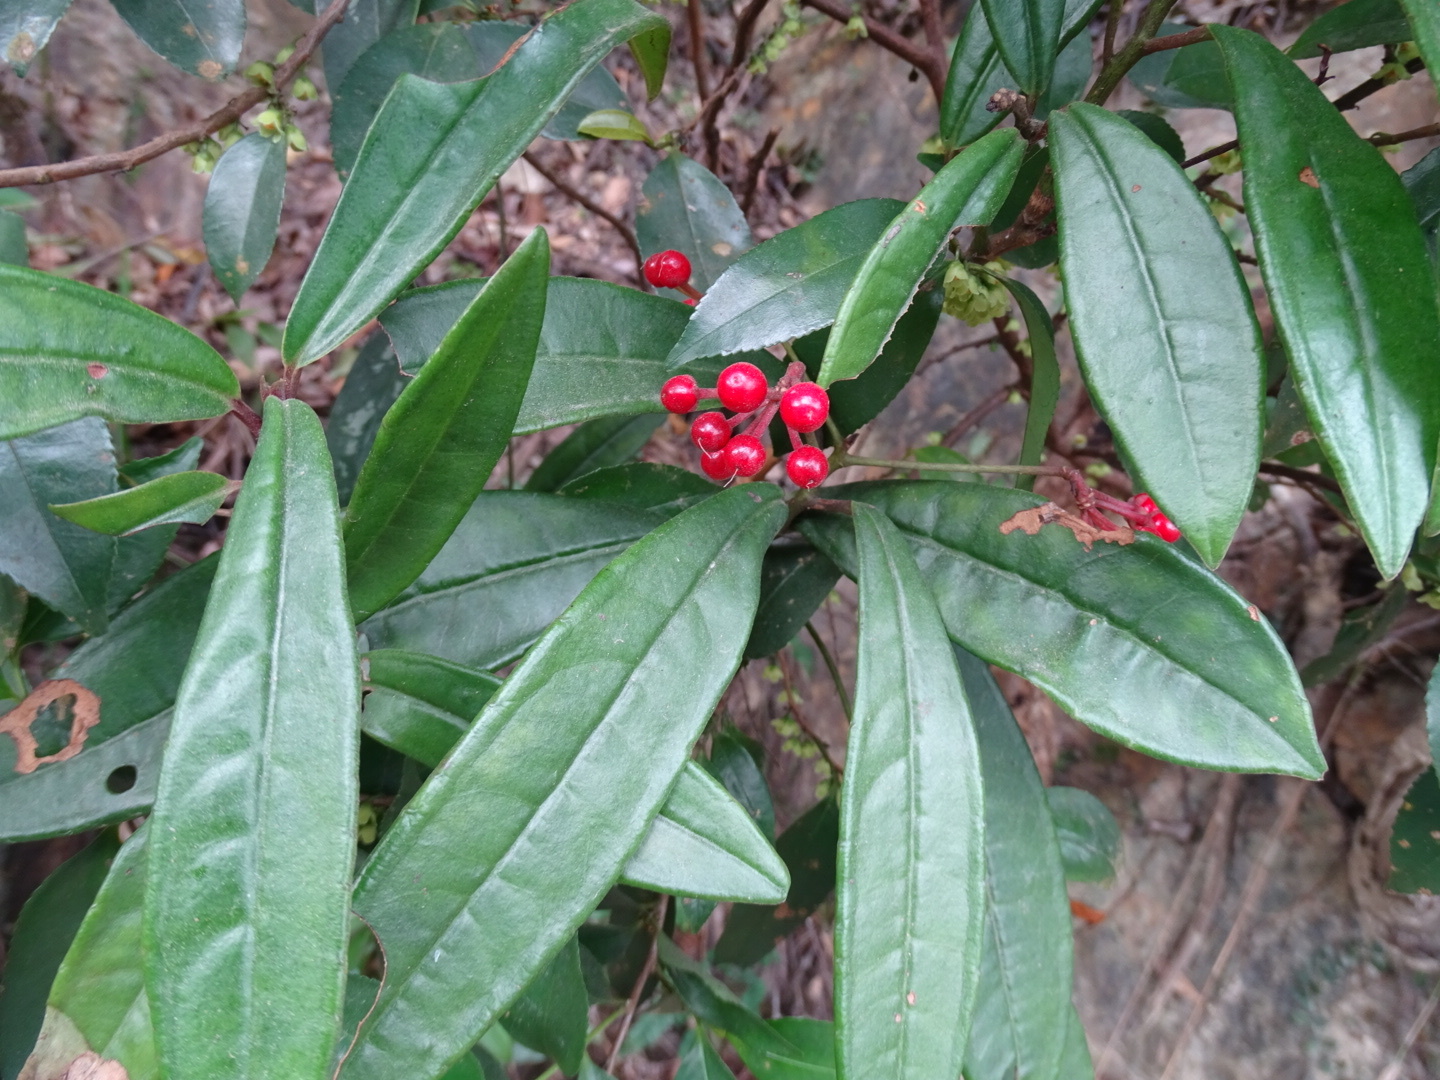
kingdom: Plantae
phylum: Tracheophyta
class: Magnoliopsida
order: Ericales
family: Primulaceae
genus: Ardisia
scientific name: Ardisia lindleyana
